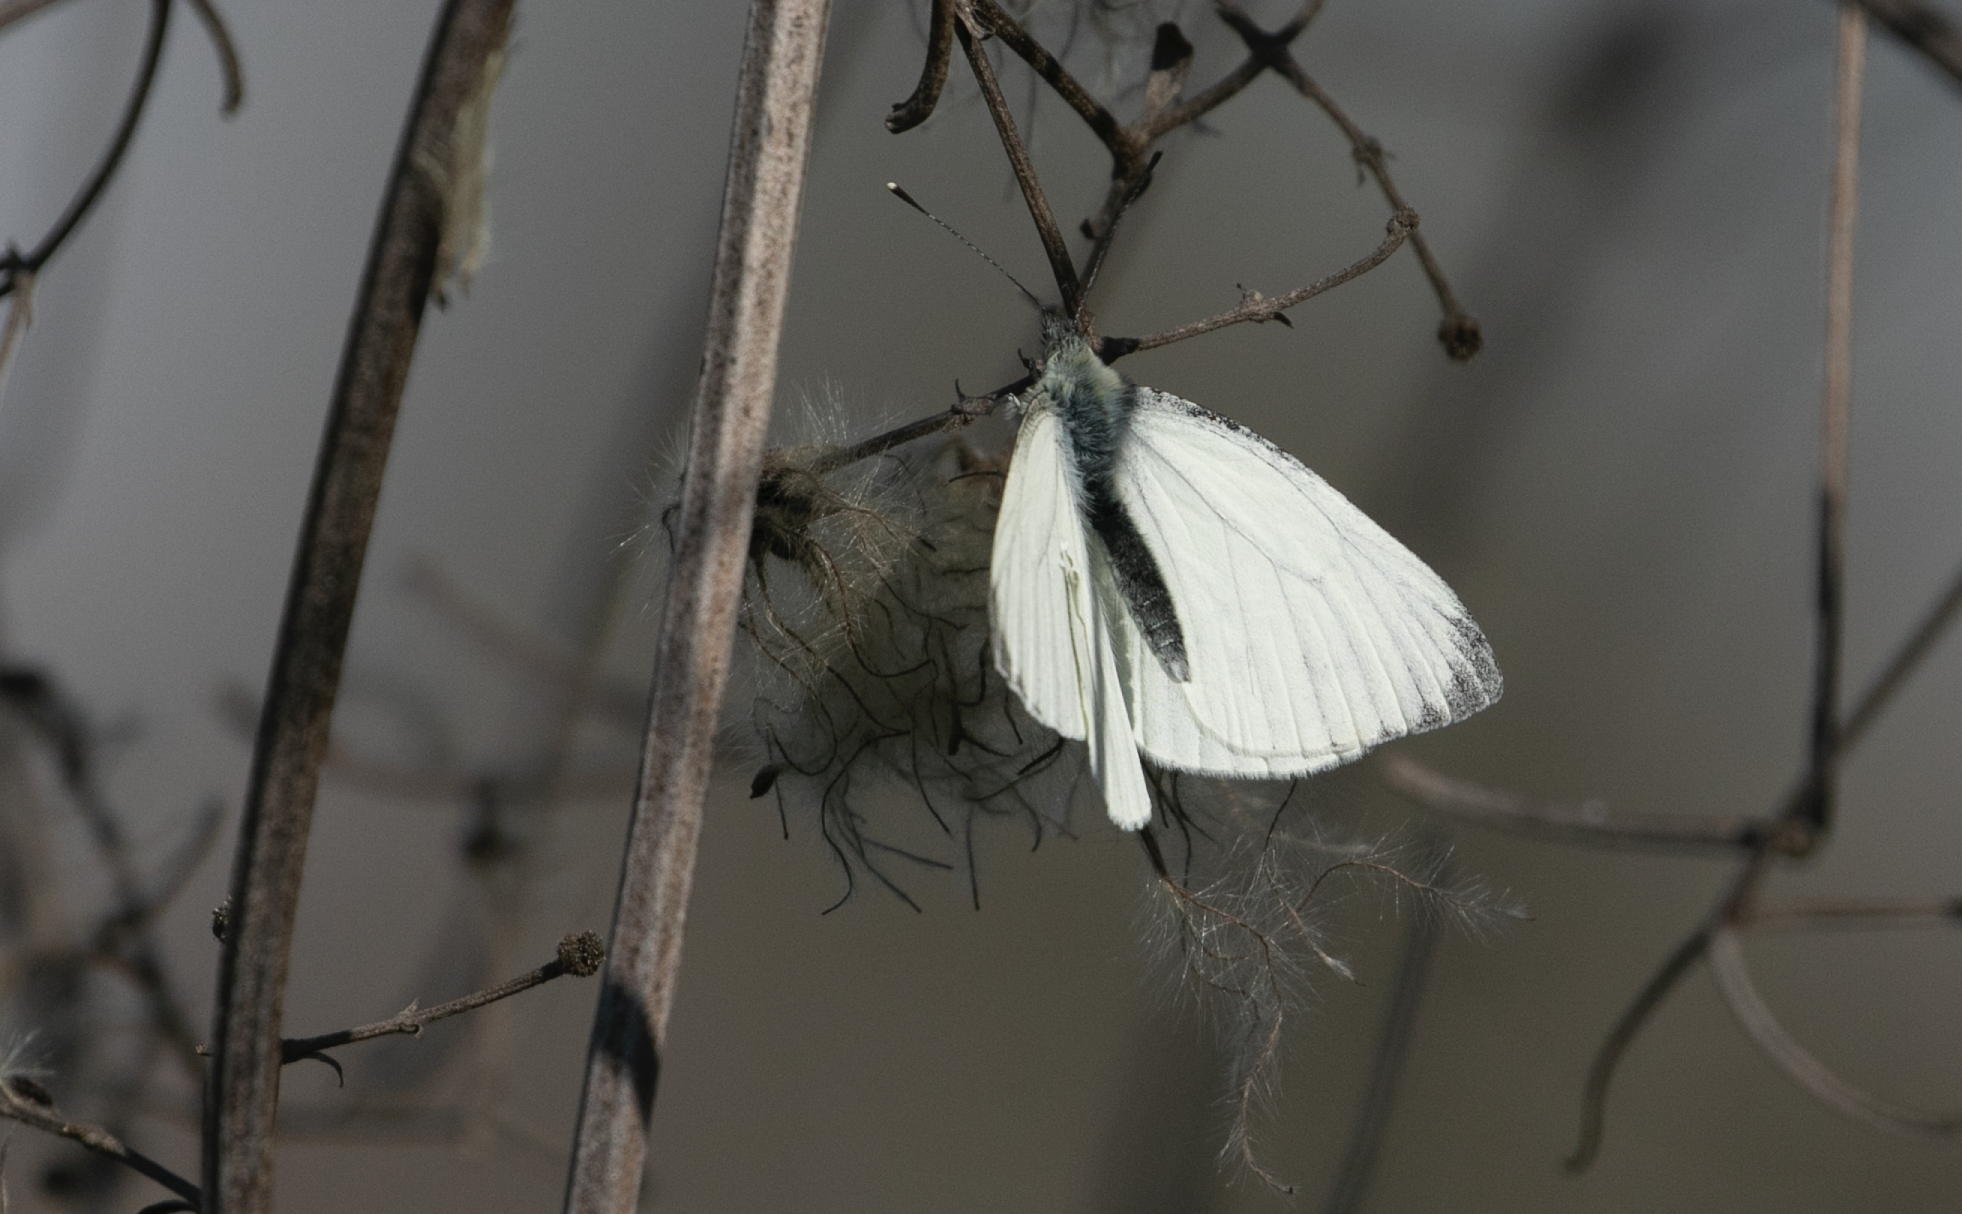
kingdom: Animalia
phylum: Arthropoda
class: Insecta
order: Lepidoptera
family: Pieridae
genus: Pieris
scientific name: Pieris napi
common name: Green-veined white
